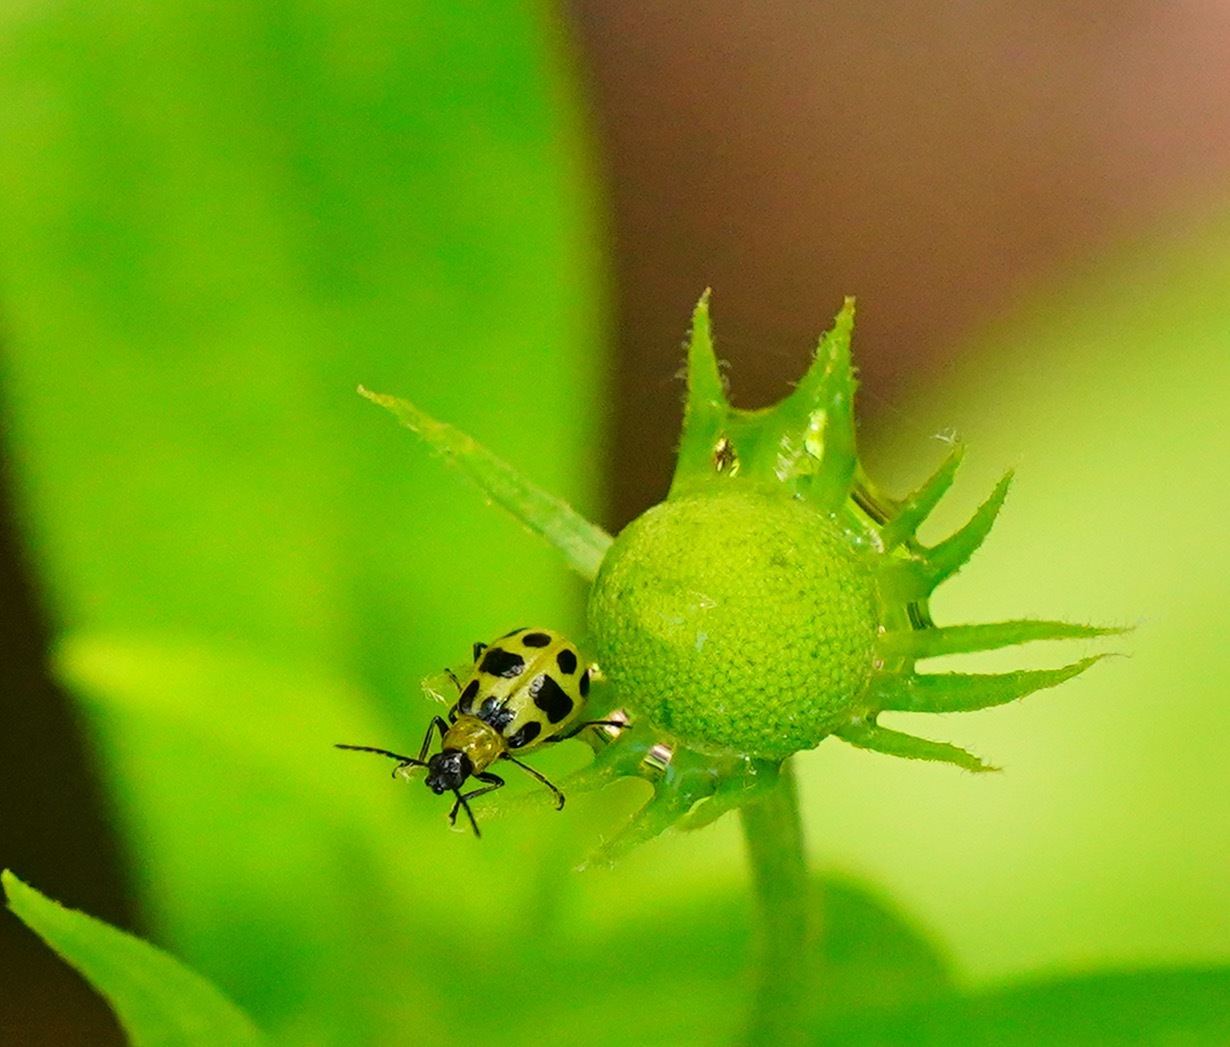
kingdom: Animalia
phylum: Arthropoda
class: Insecta
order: Coleoptera
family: Chrysomelidae
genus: Diabrotica
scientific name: Diabrotica undecimpunctata
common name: Spotted cucumber beetle
